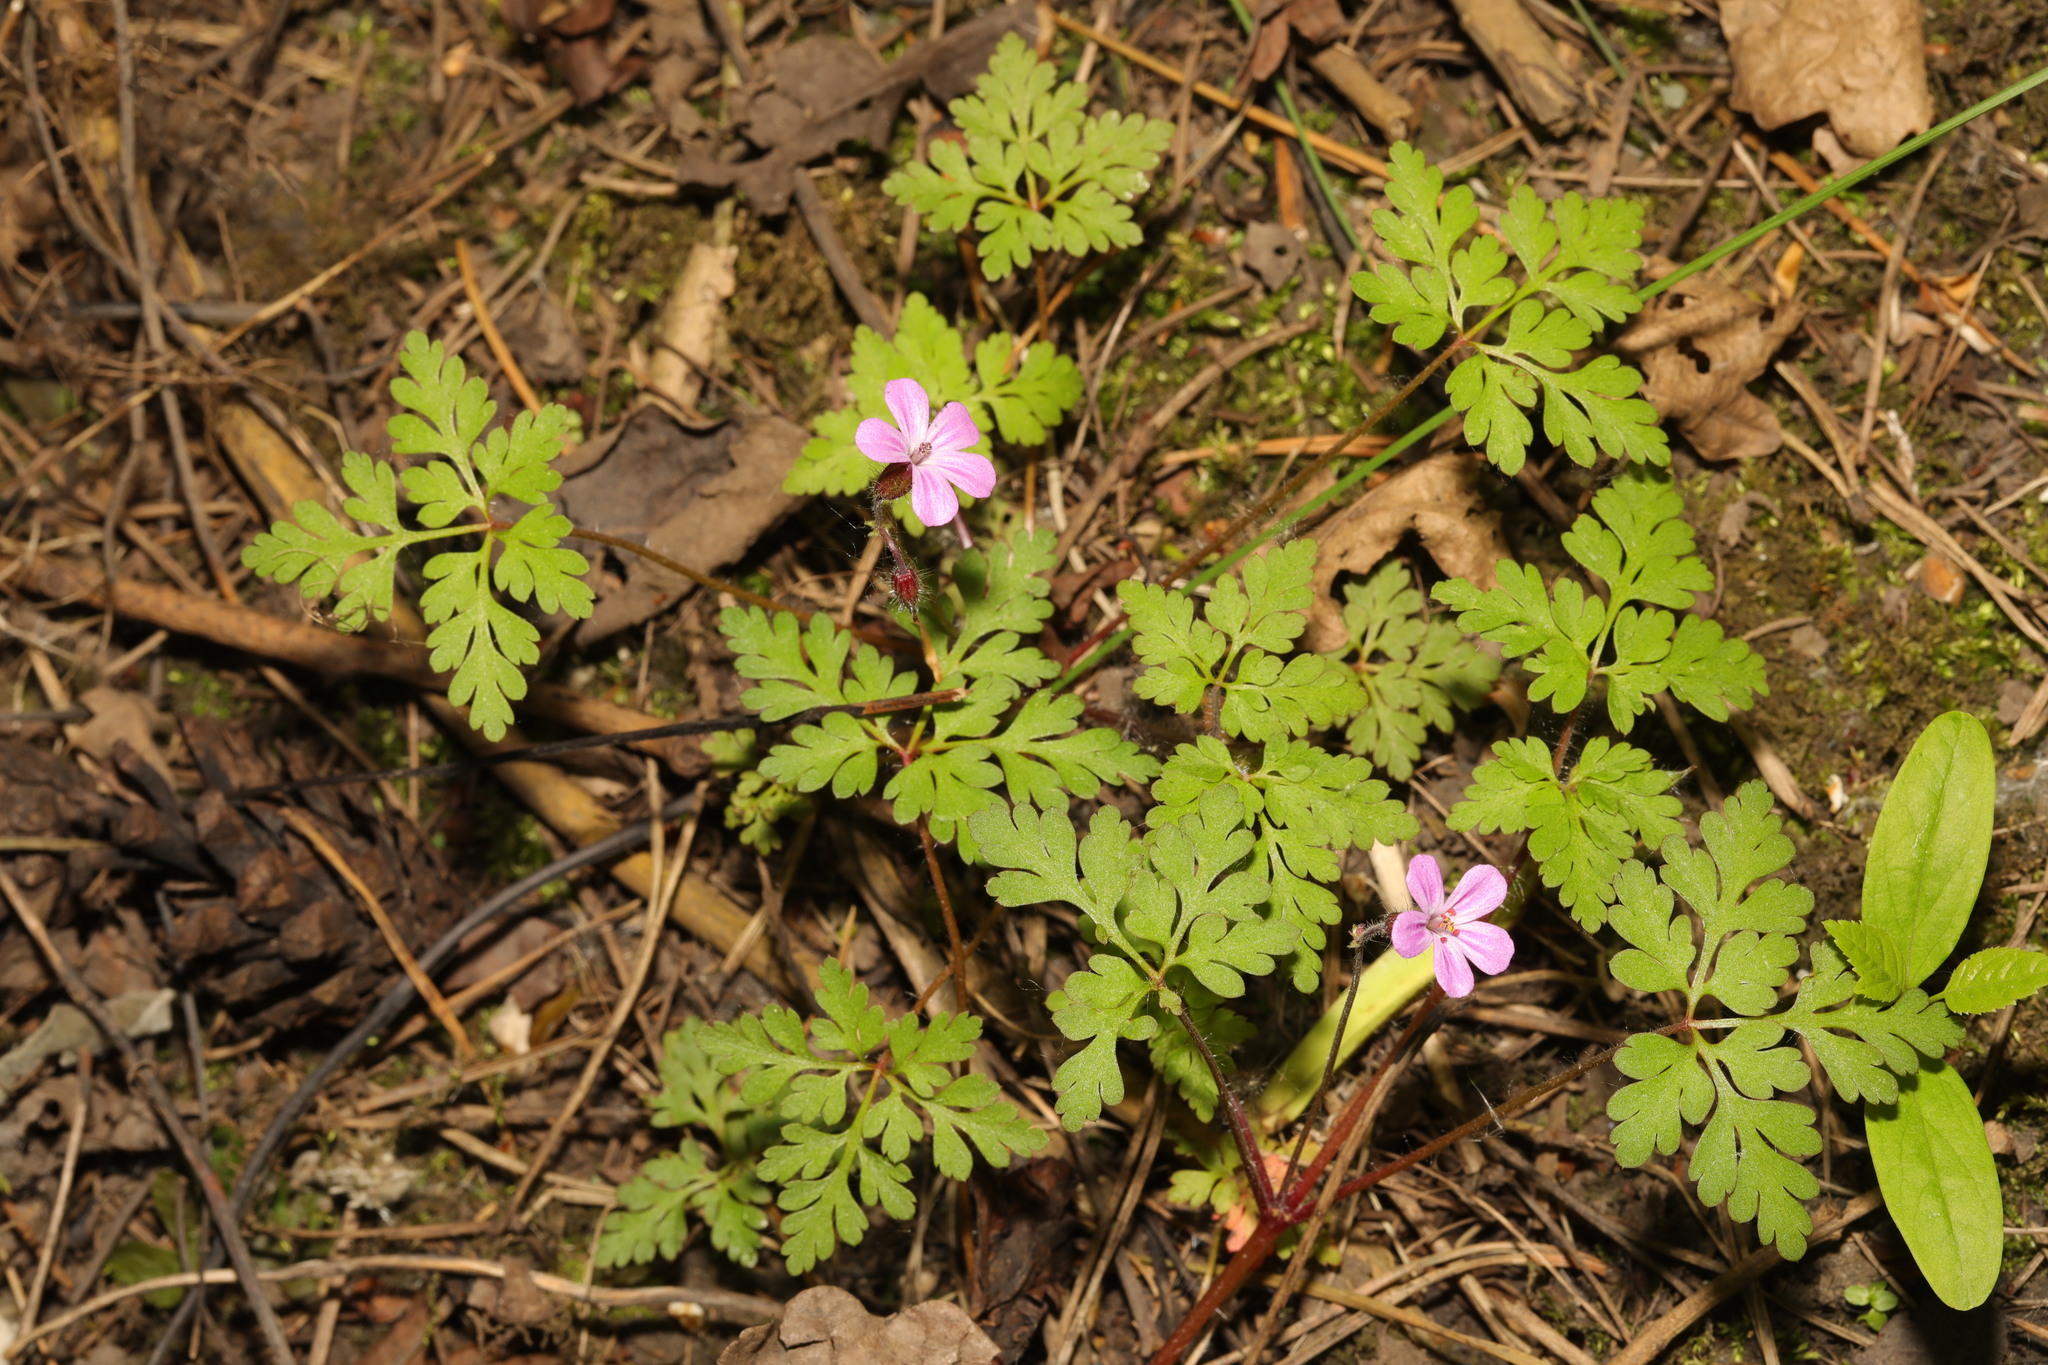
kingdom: Plantae
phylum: Tracheophyta
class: Magnoliopsida
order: Geraniales
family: Geraniaceae
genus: Geranium
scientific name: Geranium robertianum
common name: Herb-robert
